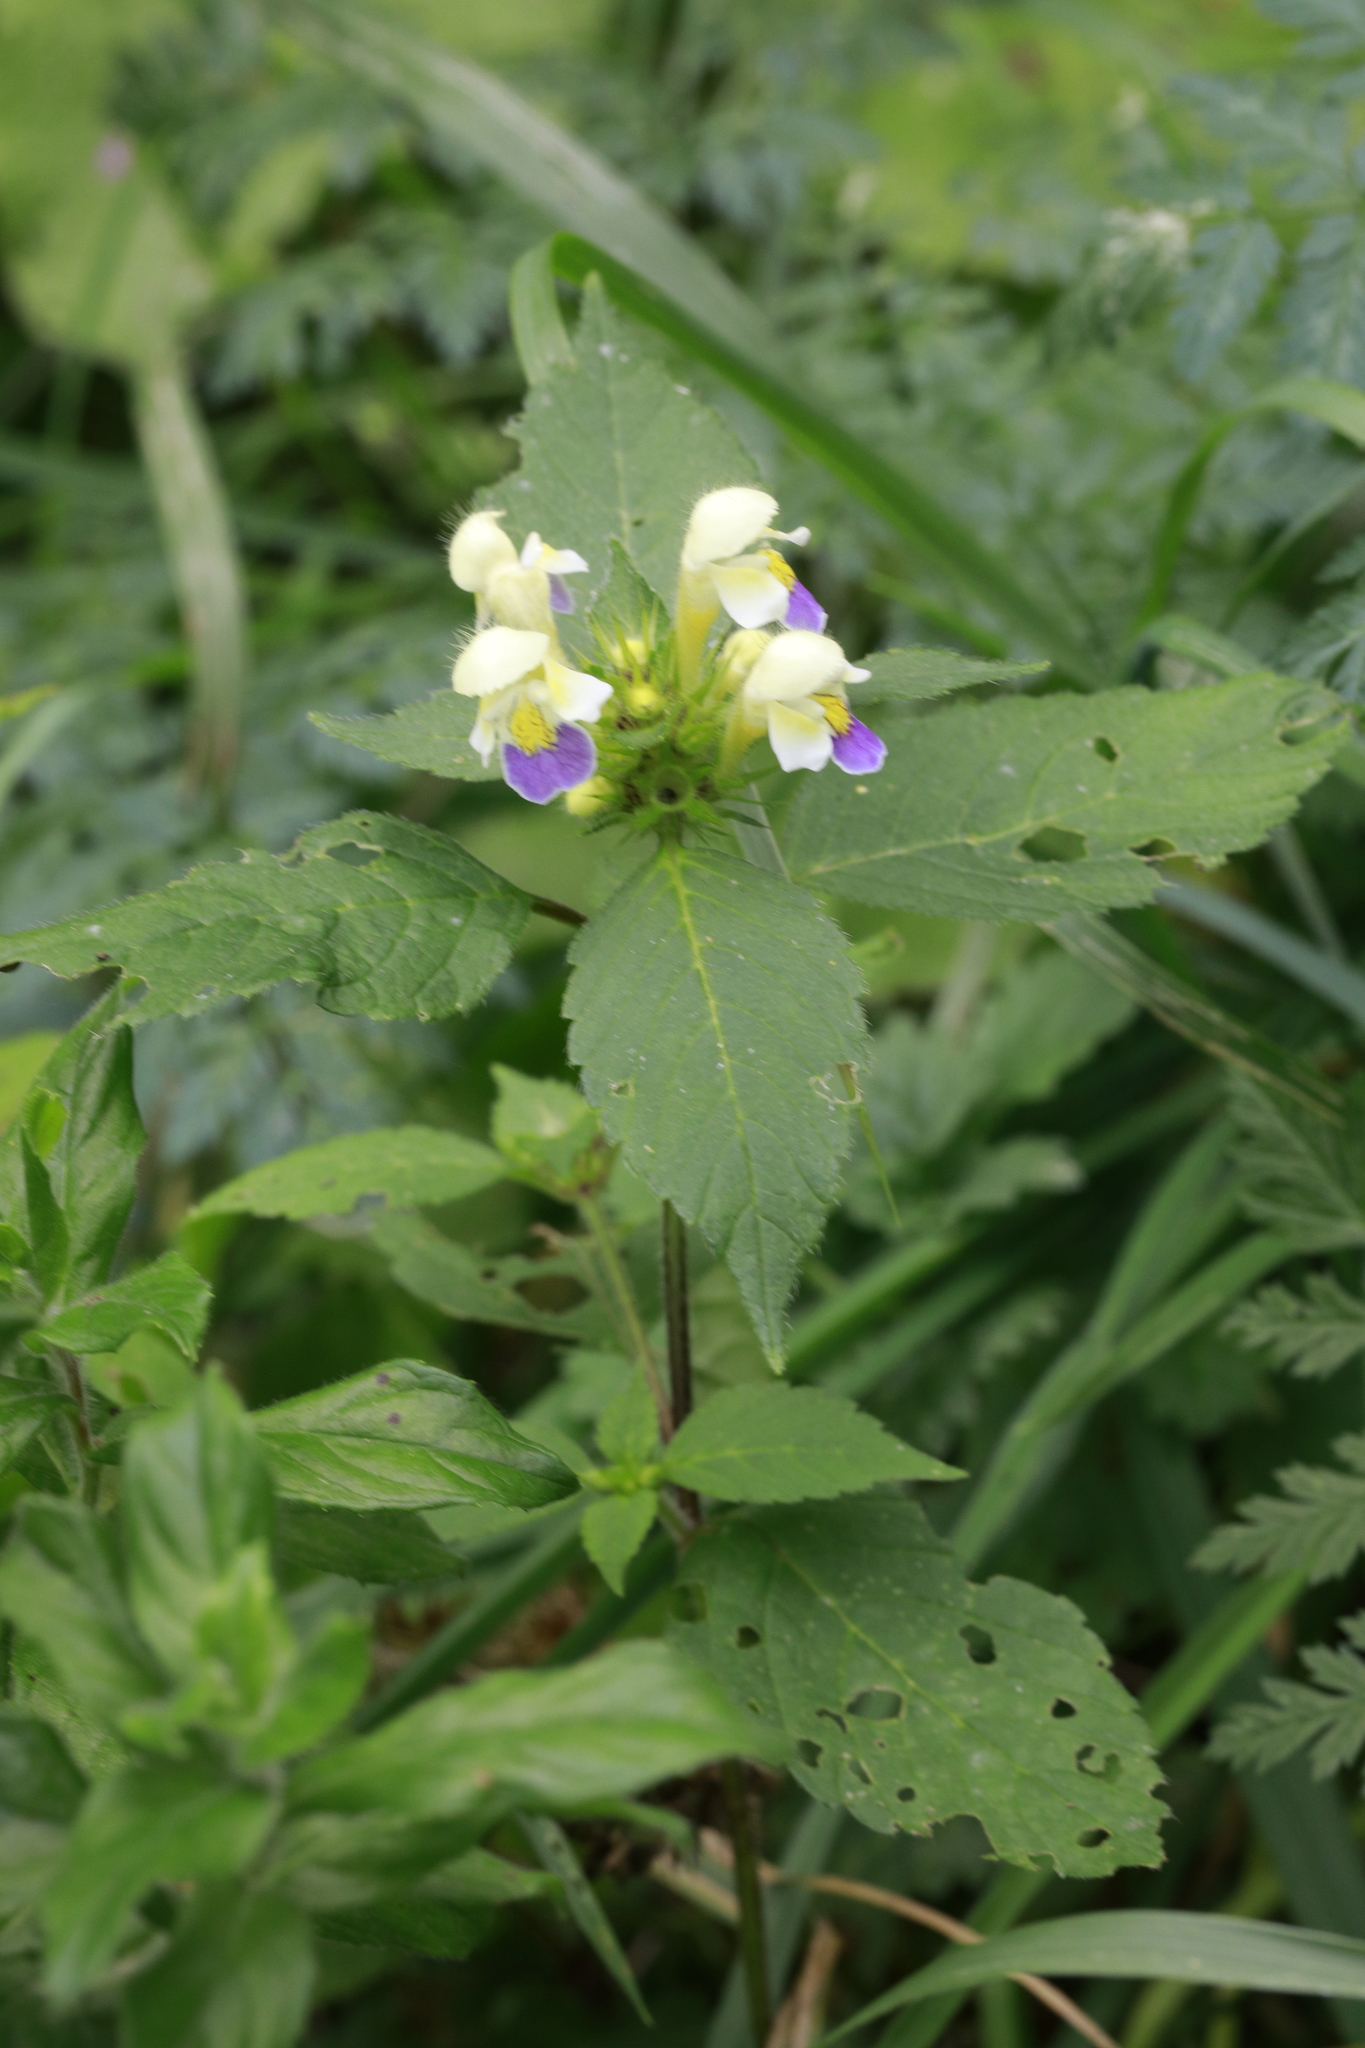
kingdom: Plantae
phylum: Tracheophyta
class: Magnoliopsida
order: Lamiales
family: Lamiaceae
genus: Galeopsis
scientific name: Galeopsis speciosa
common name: Large-flowered hemp-nettle
